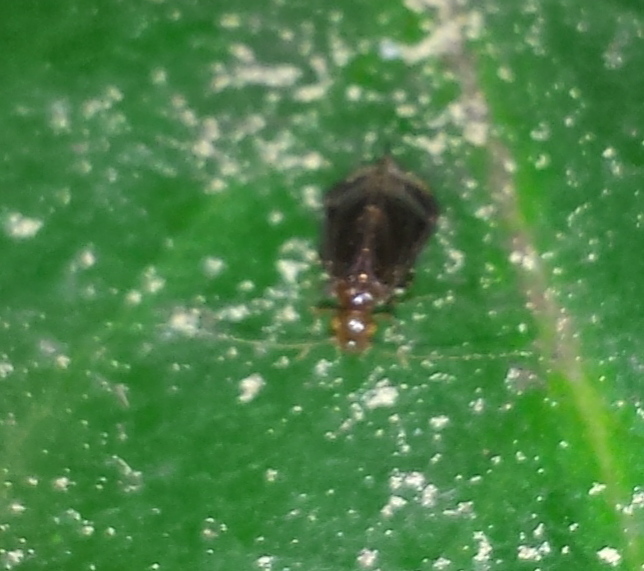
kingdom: Animalia
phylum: Arthropoda
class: Insecta
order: Psocodea
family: Amphipsocidae
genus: Polypsocus
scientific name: Polypsocus corruptus
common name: Corrupt barklouse
